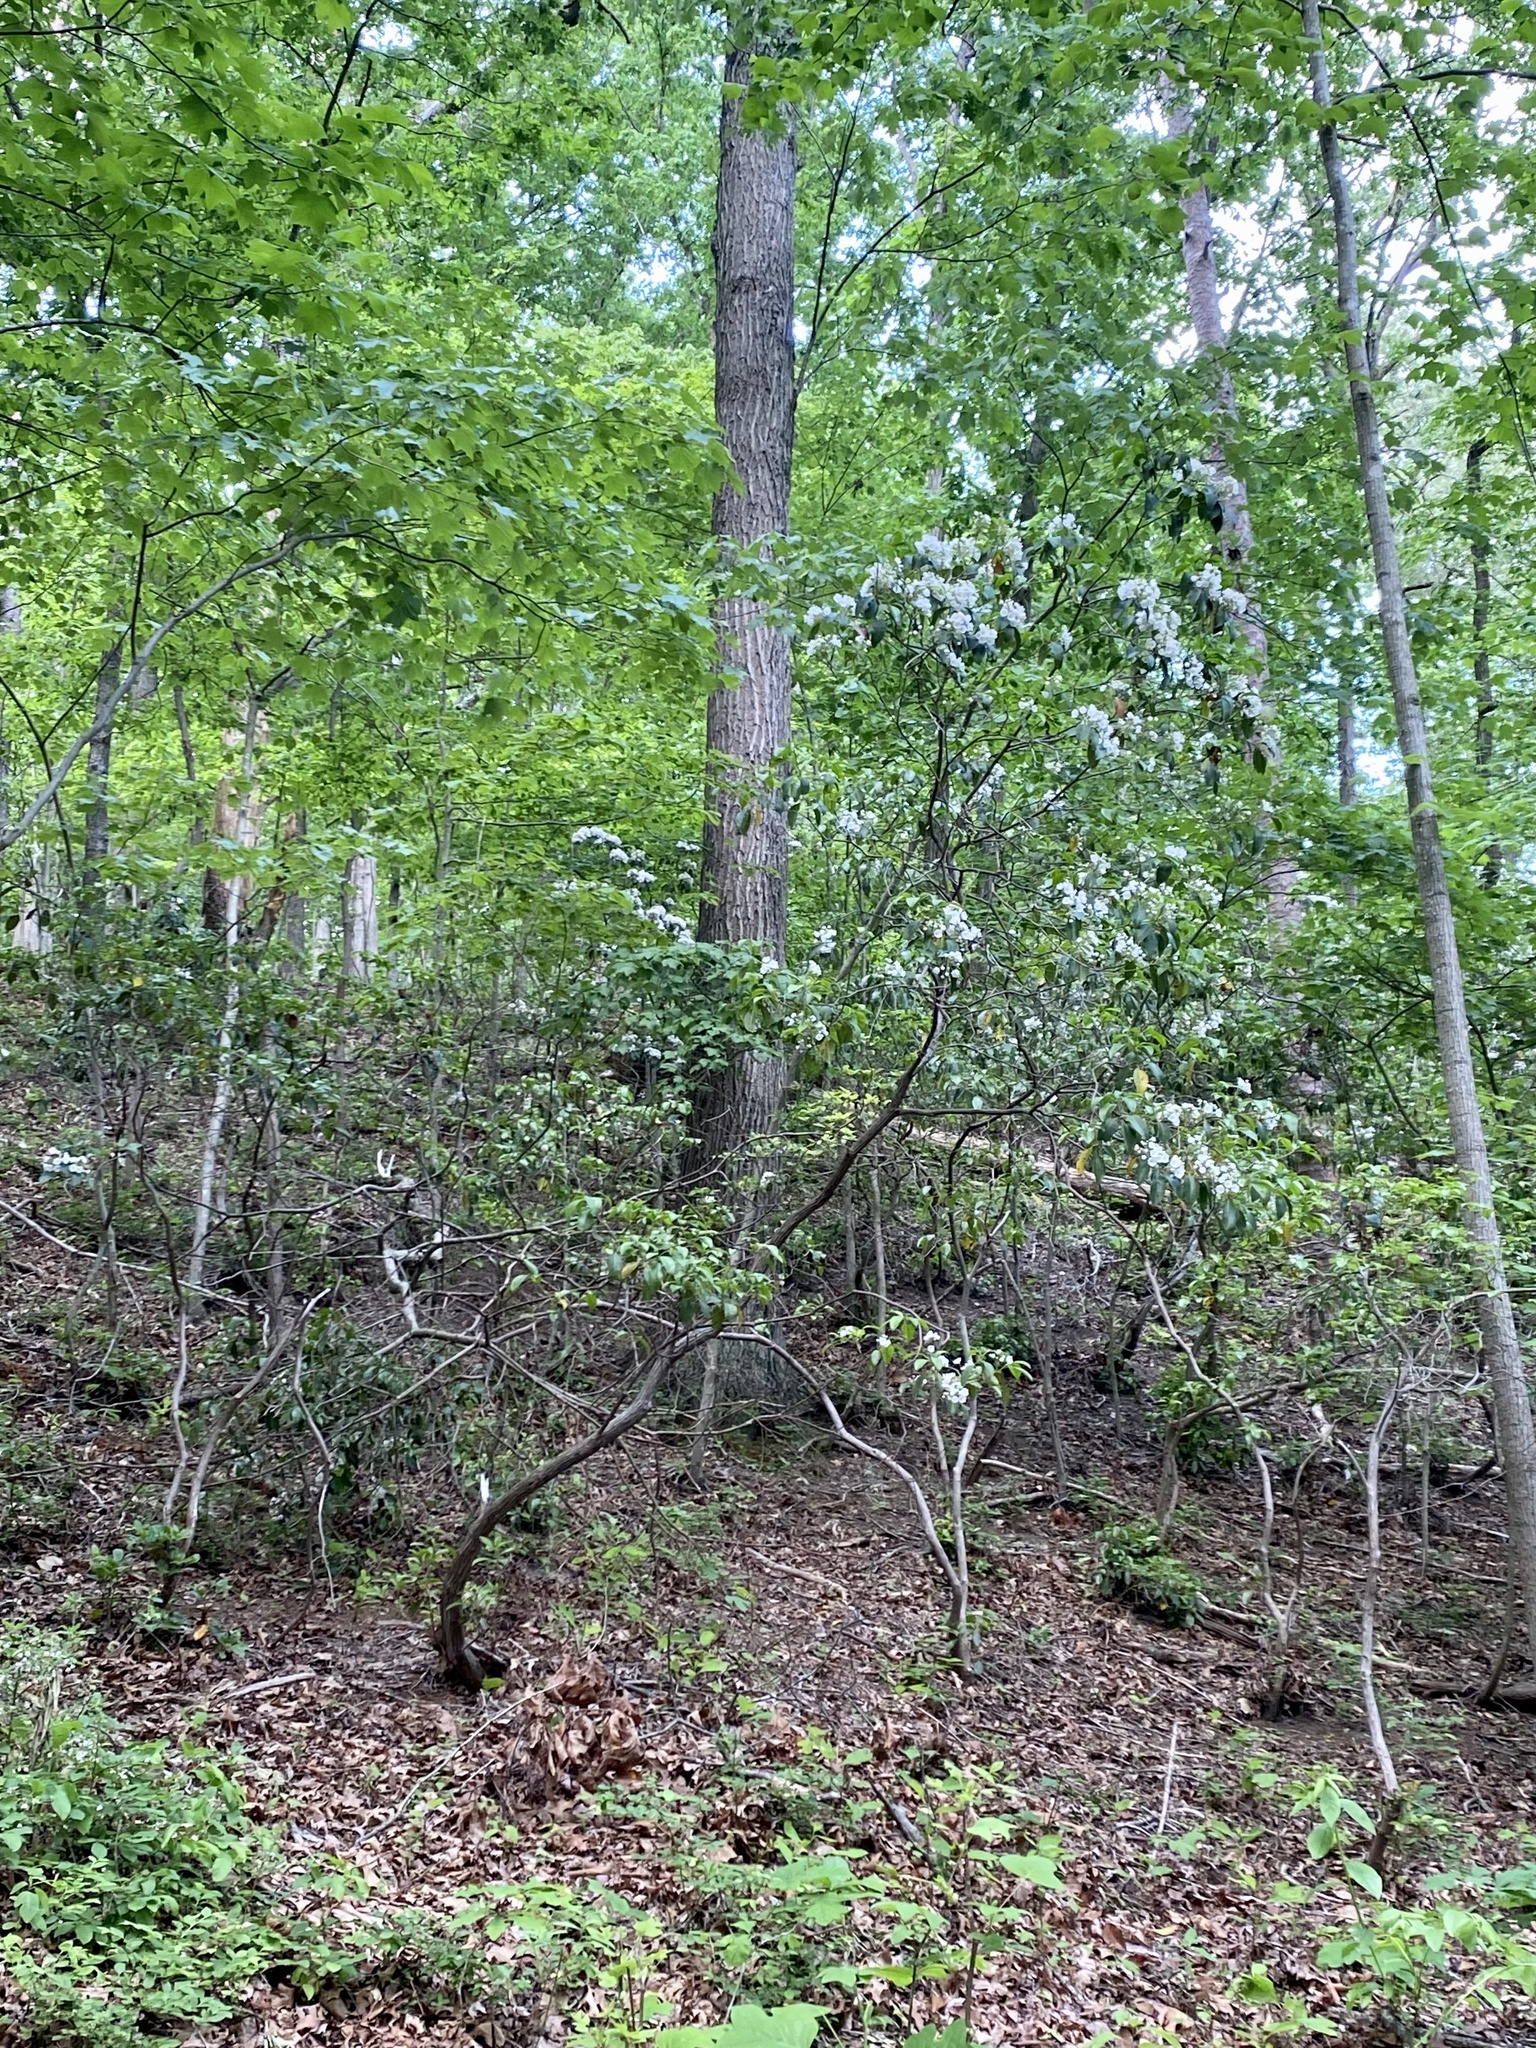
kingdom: Plantae
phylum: Tracheophyta
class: Magnoliopsida
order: Ericales
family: Ericaceae
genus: Kalmia
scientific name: Kalmia latifolia
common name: Mountain-laurel
